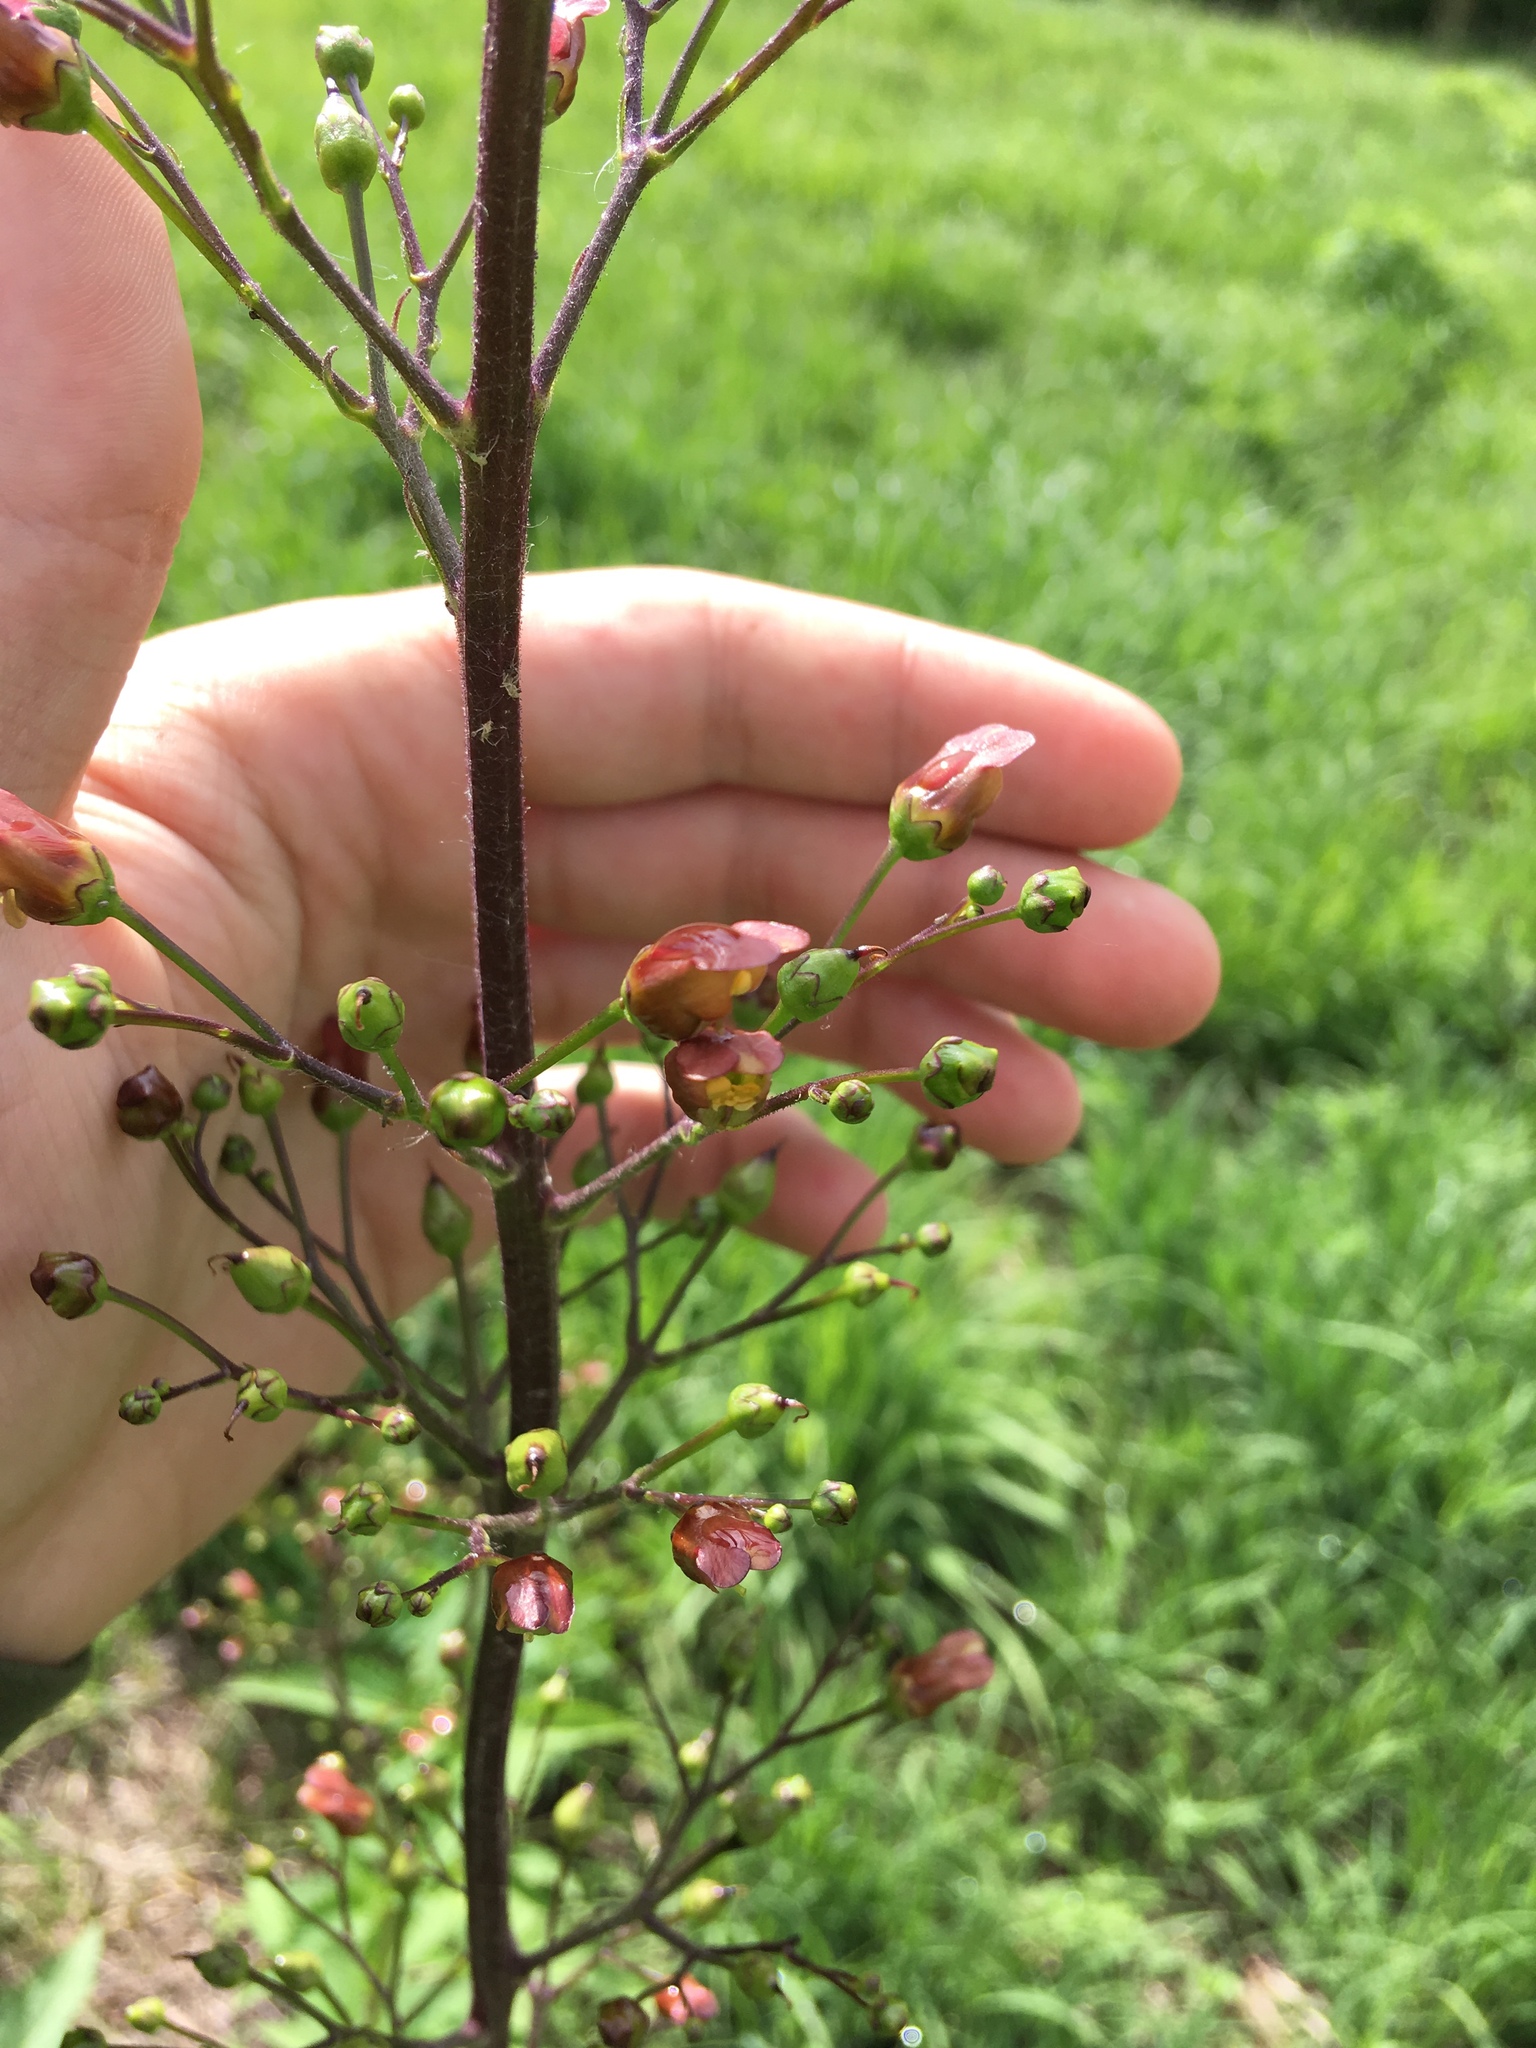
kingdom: Plantae
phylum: Tracheophyta
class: Magnoliopsida
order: Lamiales
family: Scrophulariaceae
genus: Scrophularia
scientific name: Scrophularia lanceolata
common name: American figwort
